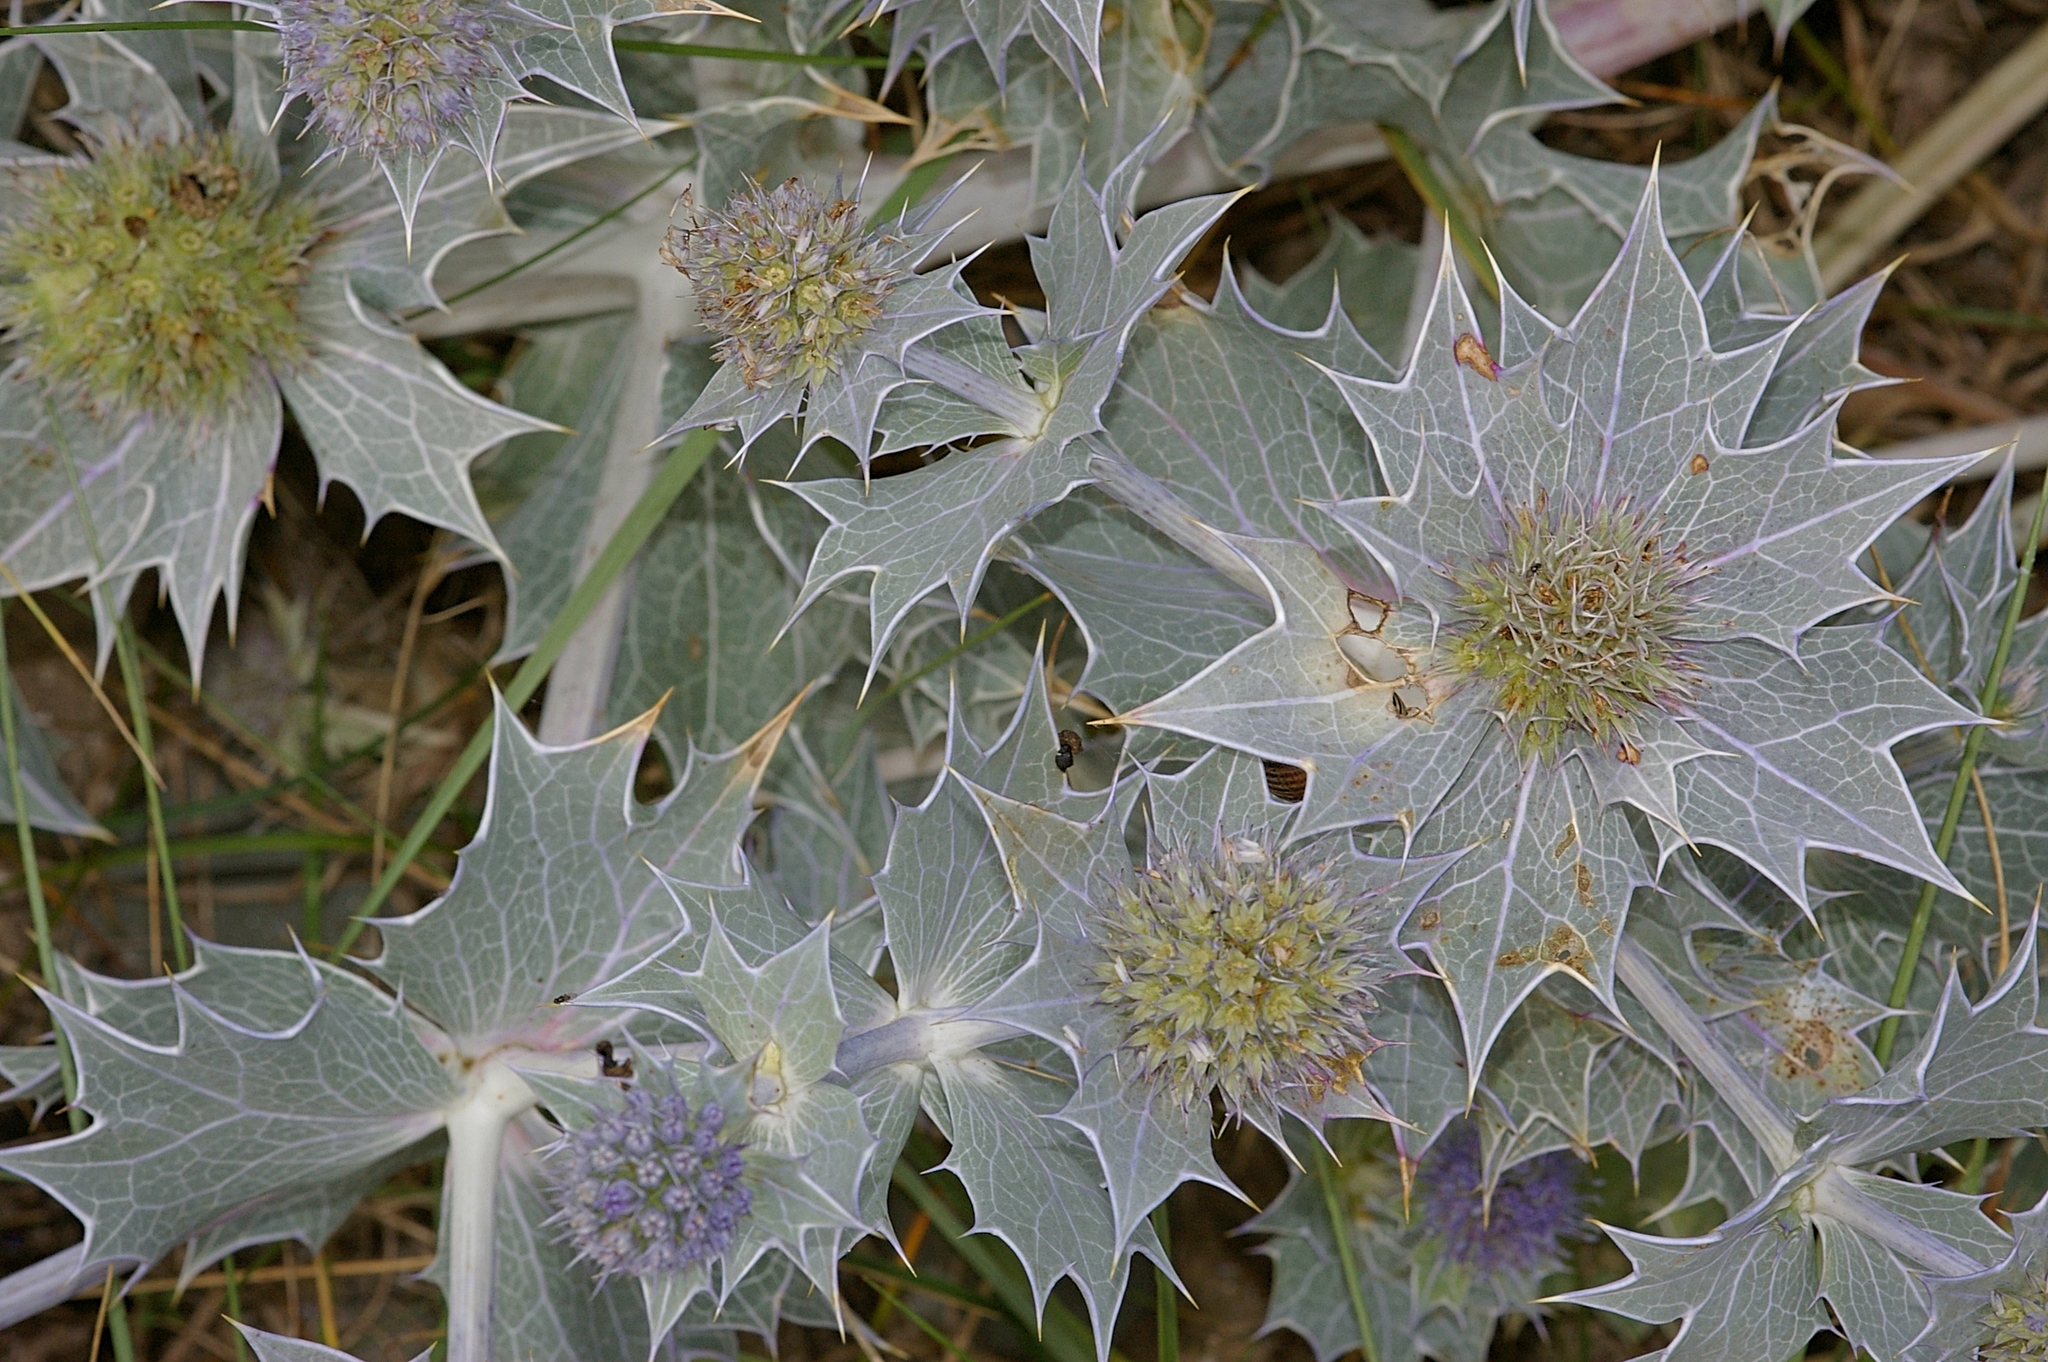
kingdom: Plantae
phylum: Tracheophyta
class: Magnoliopsida
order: Apiales
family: Apiaceae
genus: Eryngium
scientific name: Eryngium maritimum
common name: Sea-holly
